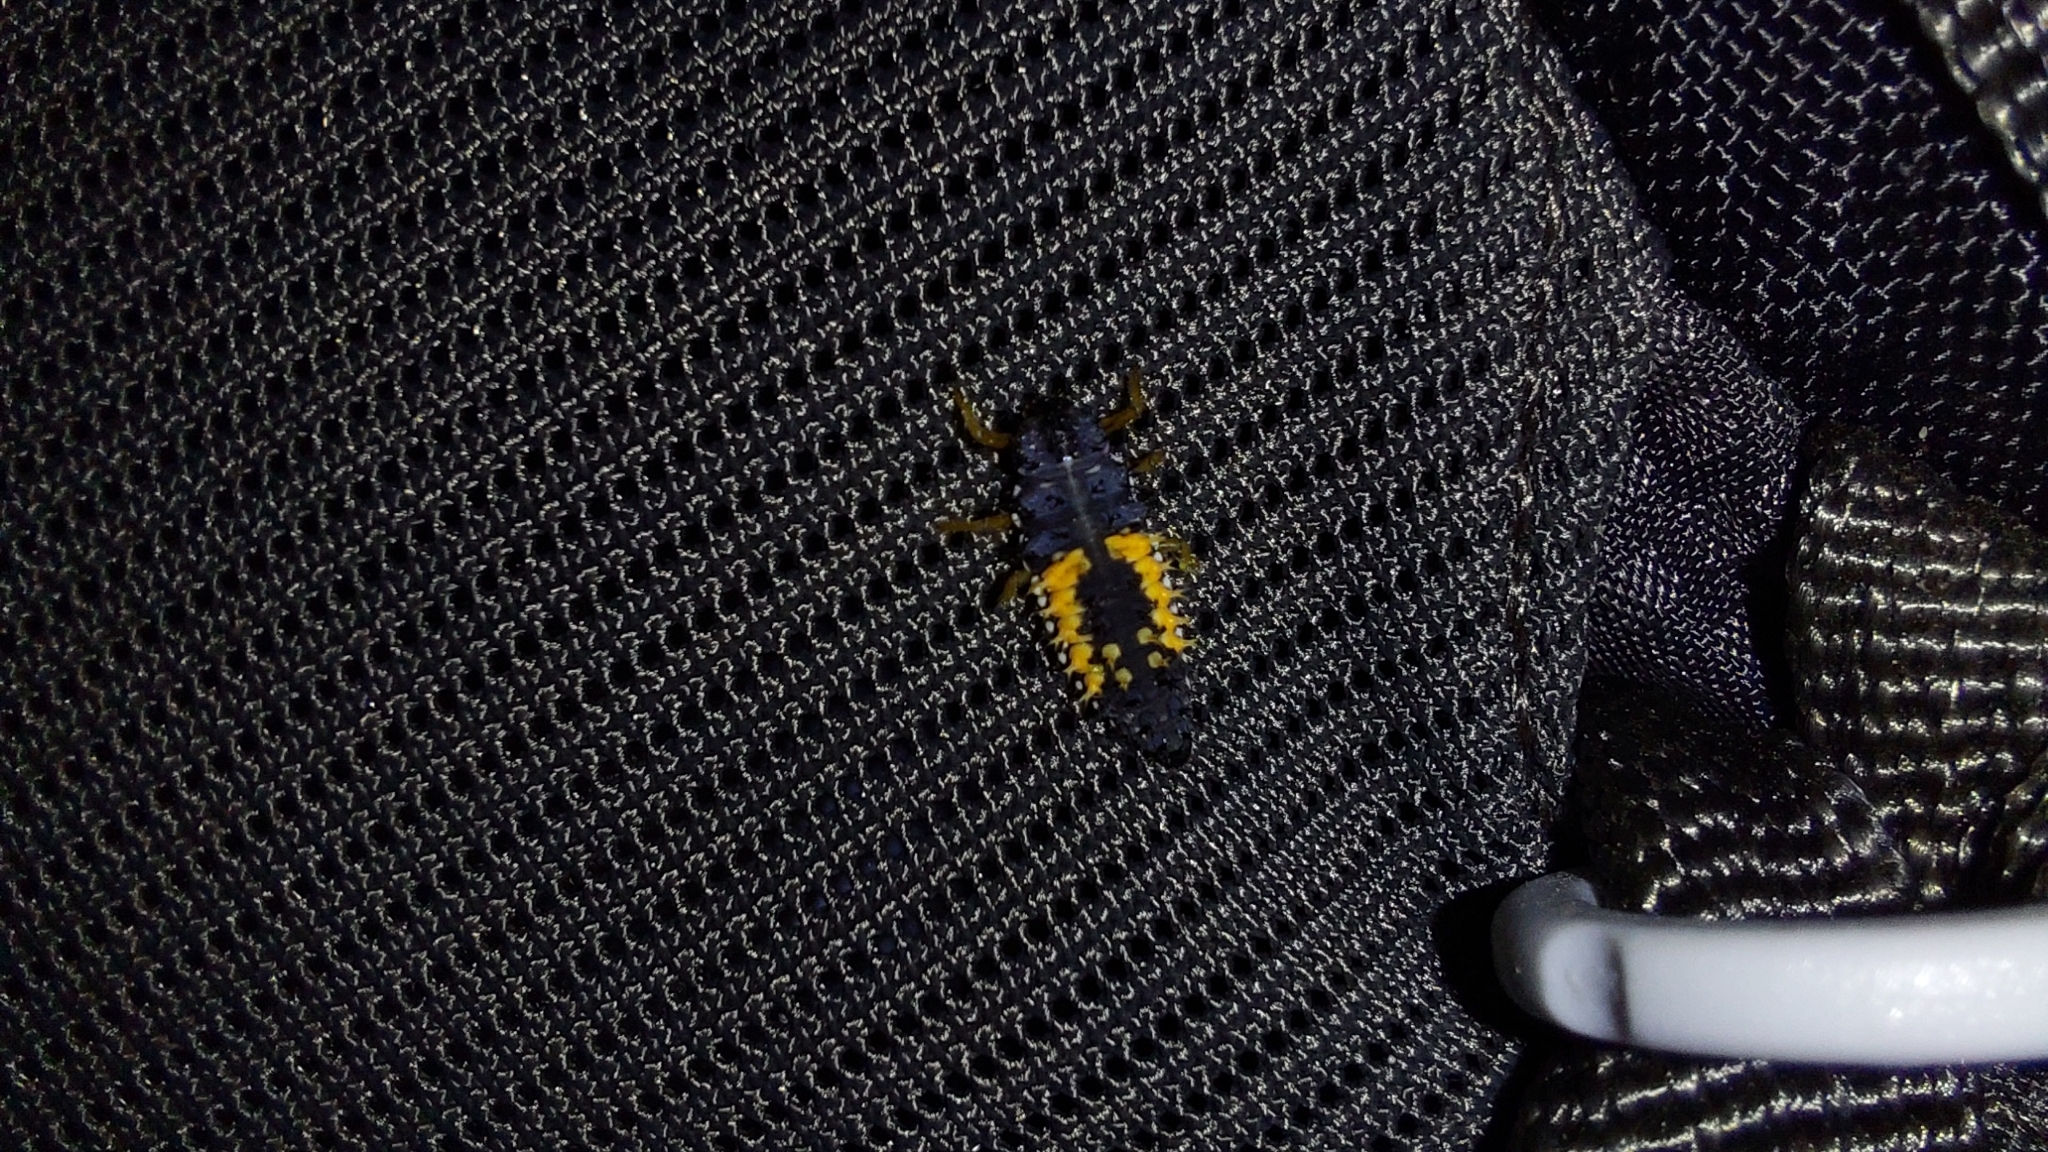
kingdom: Animalia
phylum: Arthropoda
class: Insecta
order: Coleoptera
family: Coccinellidae
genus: Harmonia
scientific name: Harmonia axyridis
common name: Harlequin ladybird
